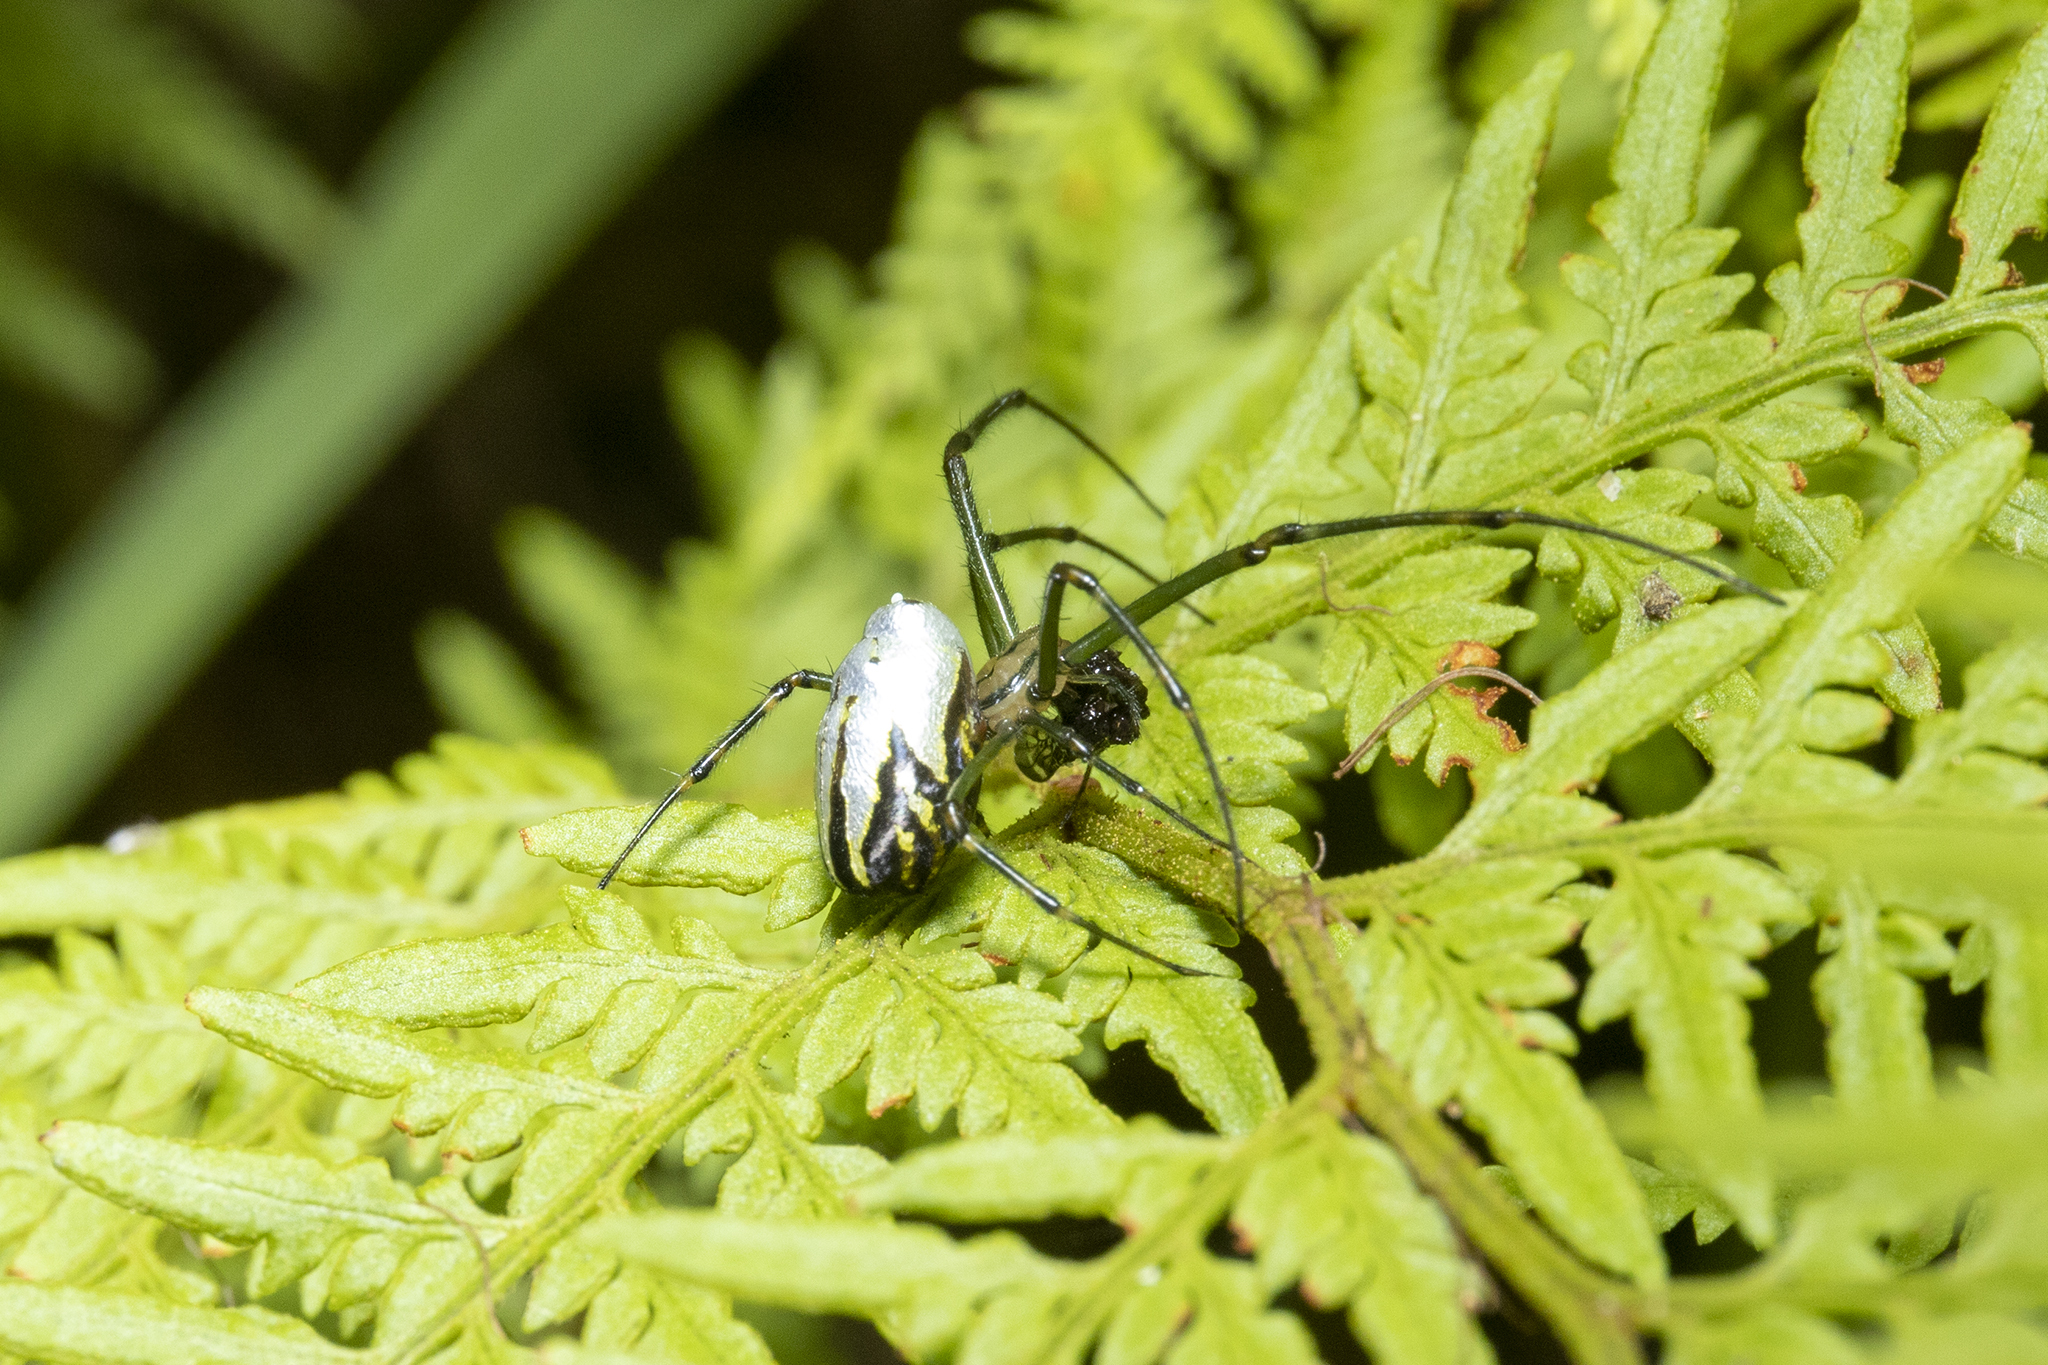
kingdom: Animalia
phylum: Arthropoda
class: Arachnida
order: Araneae
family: Tetragnathidae
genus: Leucauge
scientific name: Leucauge dromedaria
